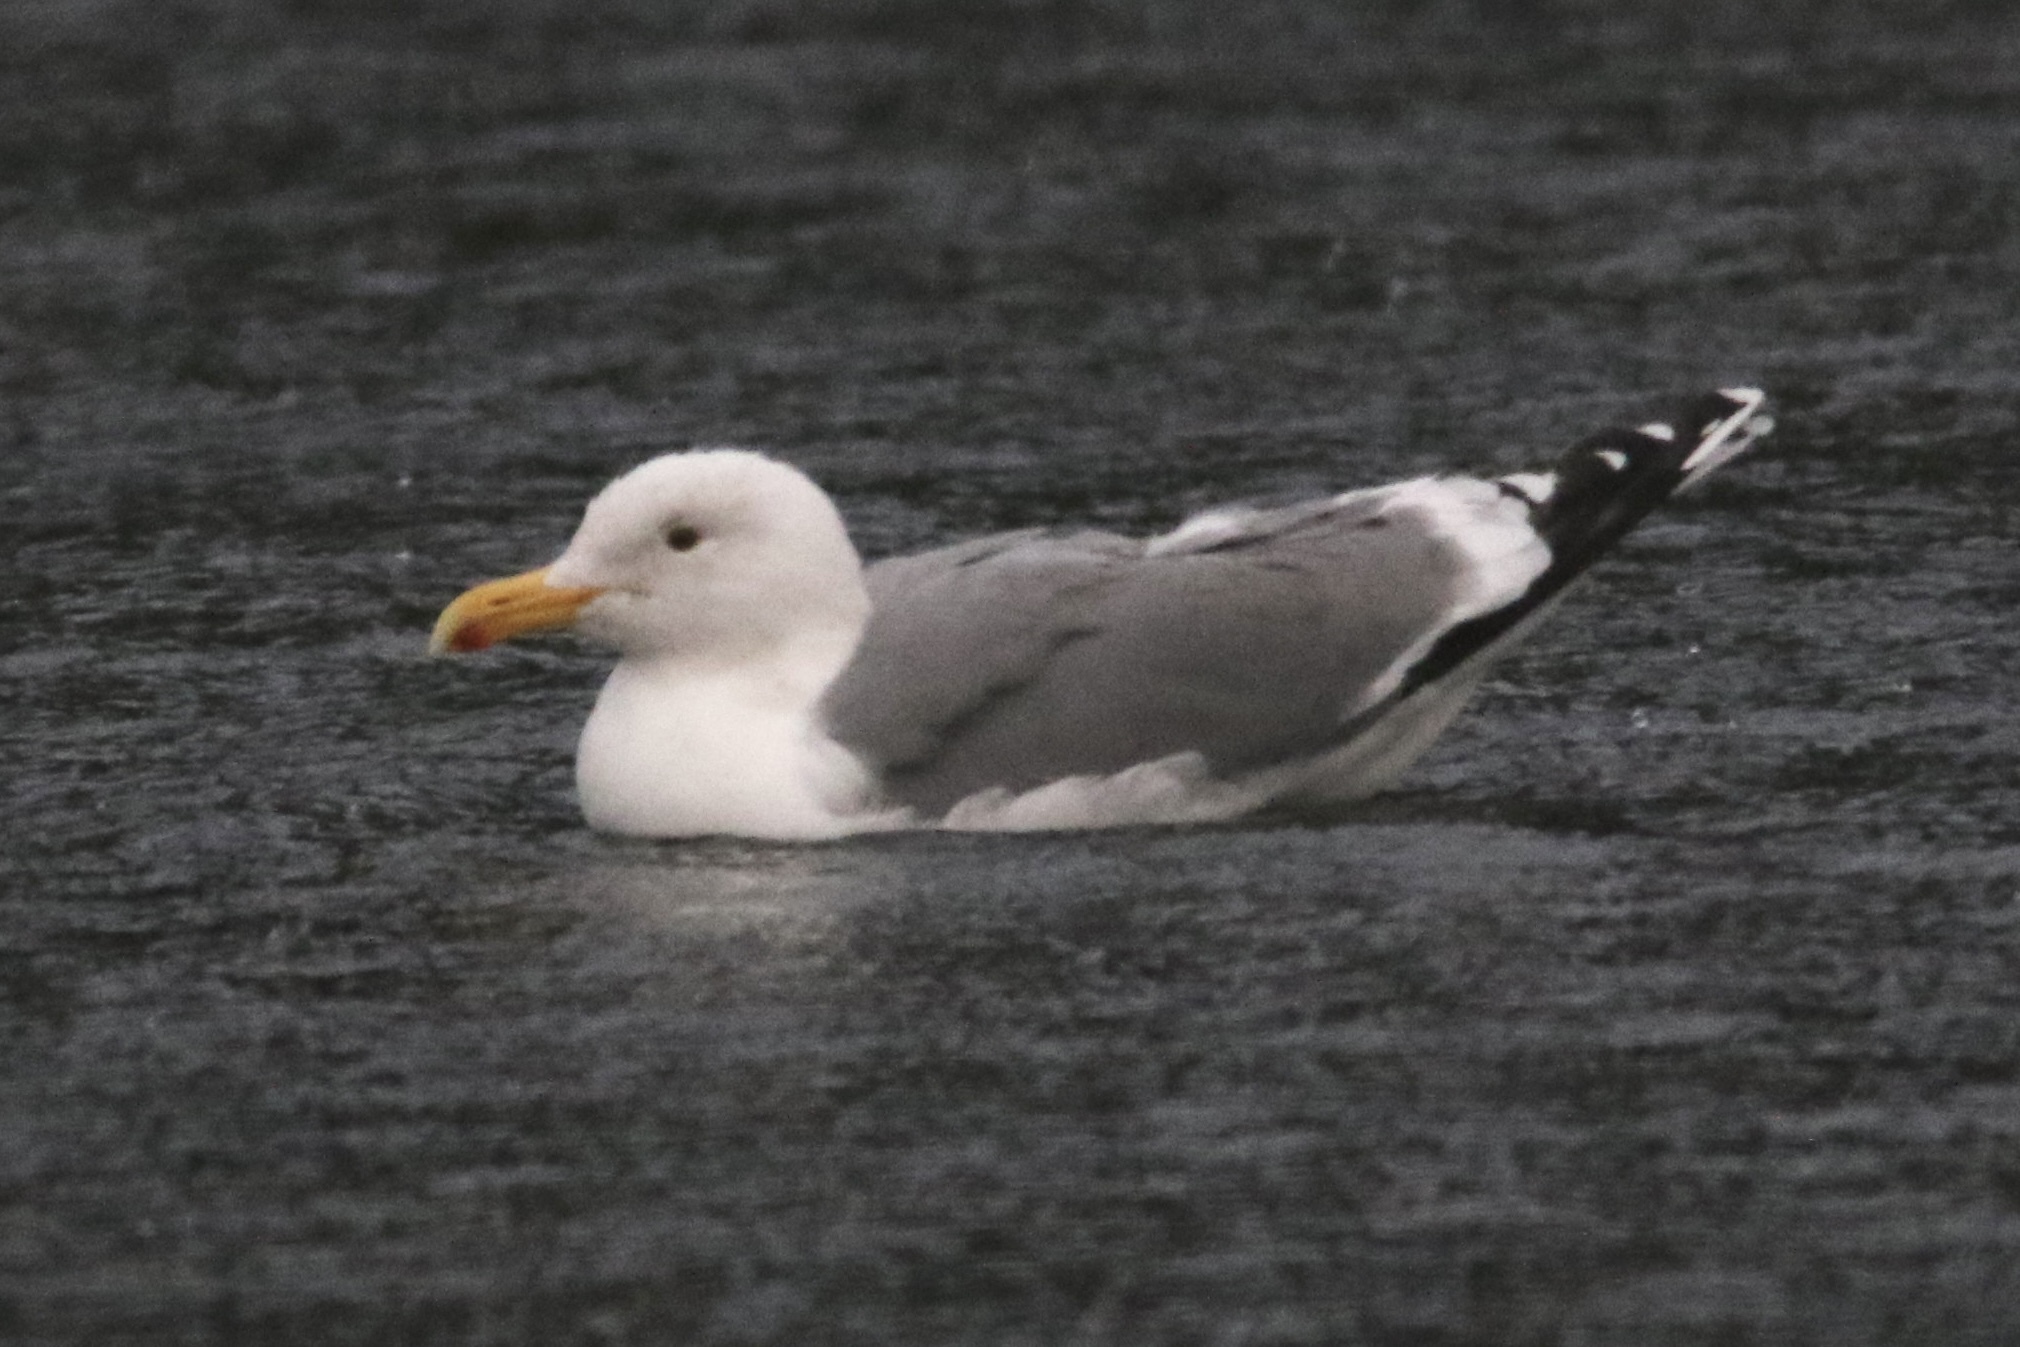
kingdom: Animalia
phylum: Chordata
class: Aves
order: Charadriiformes
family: Laridae
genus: Larus
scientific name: Larus occidentalis
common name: Western gull
